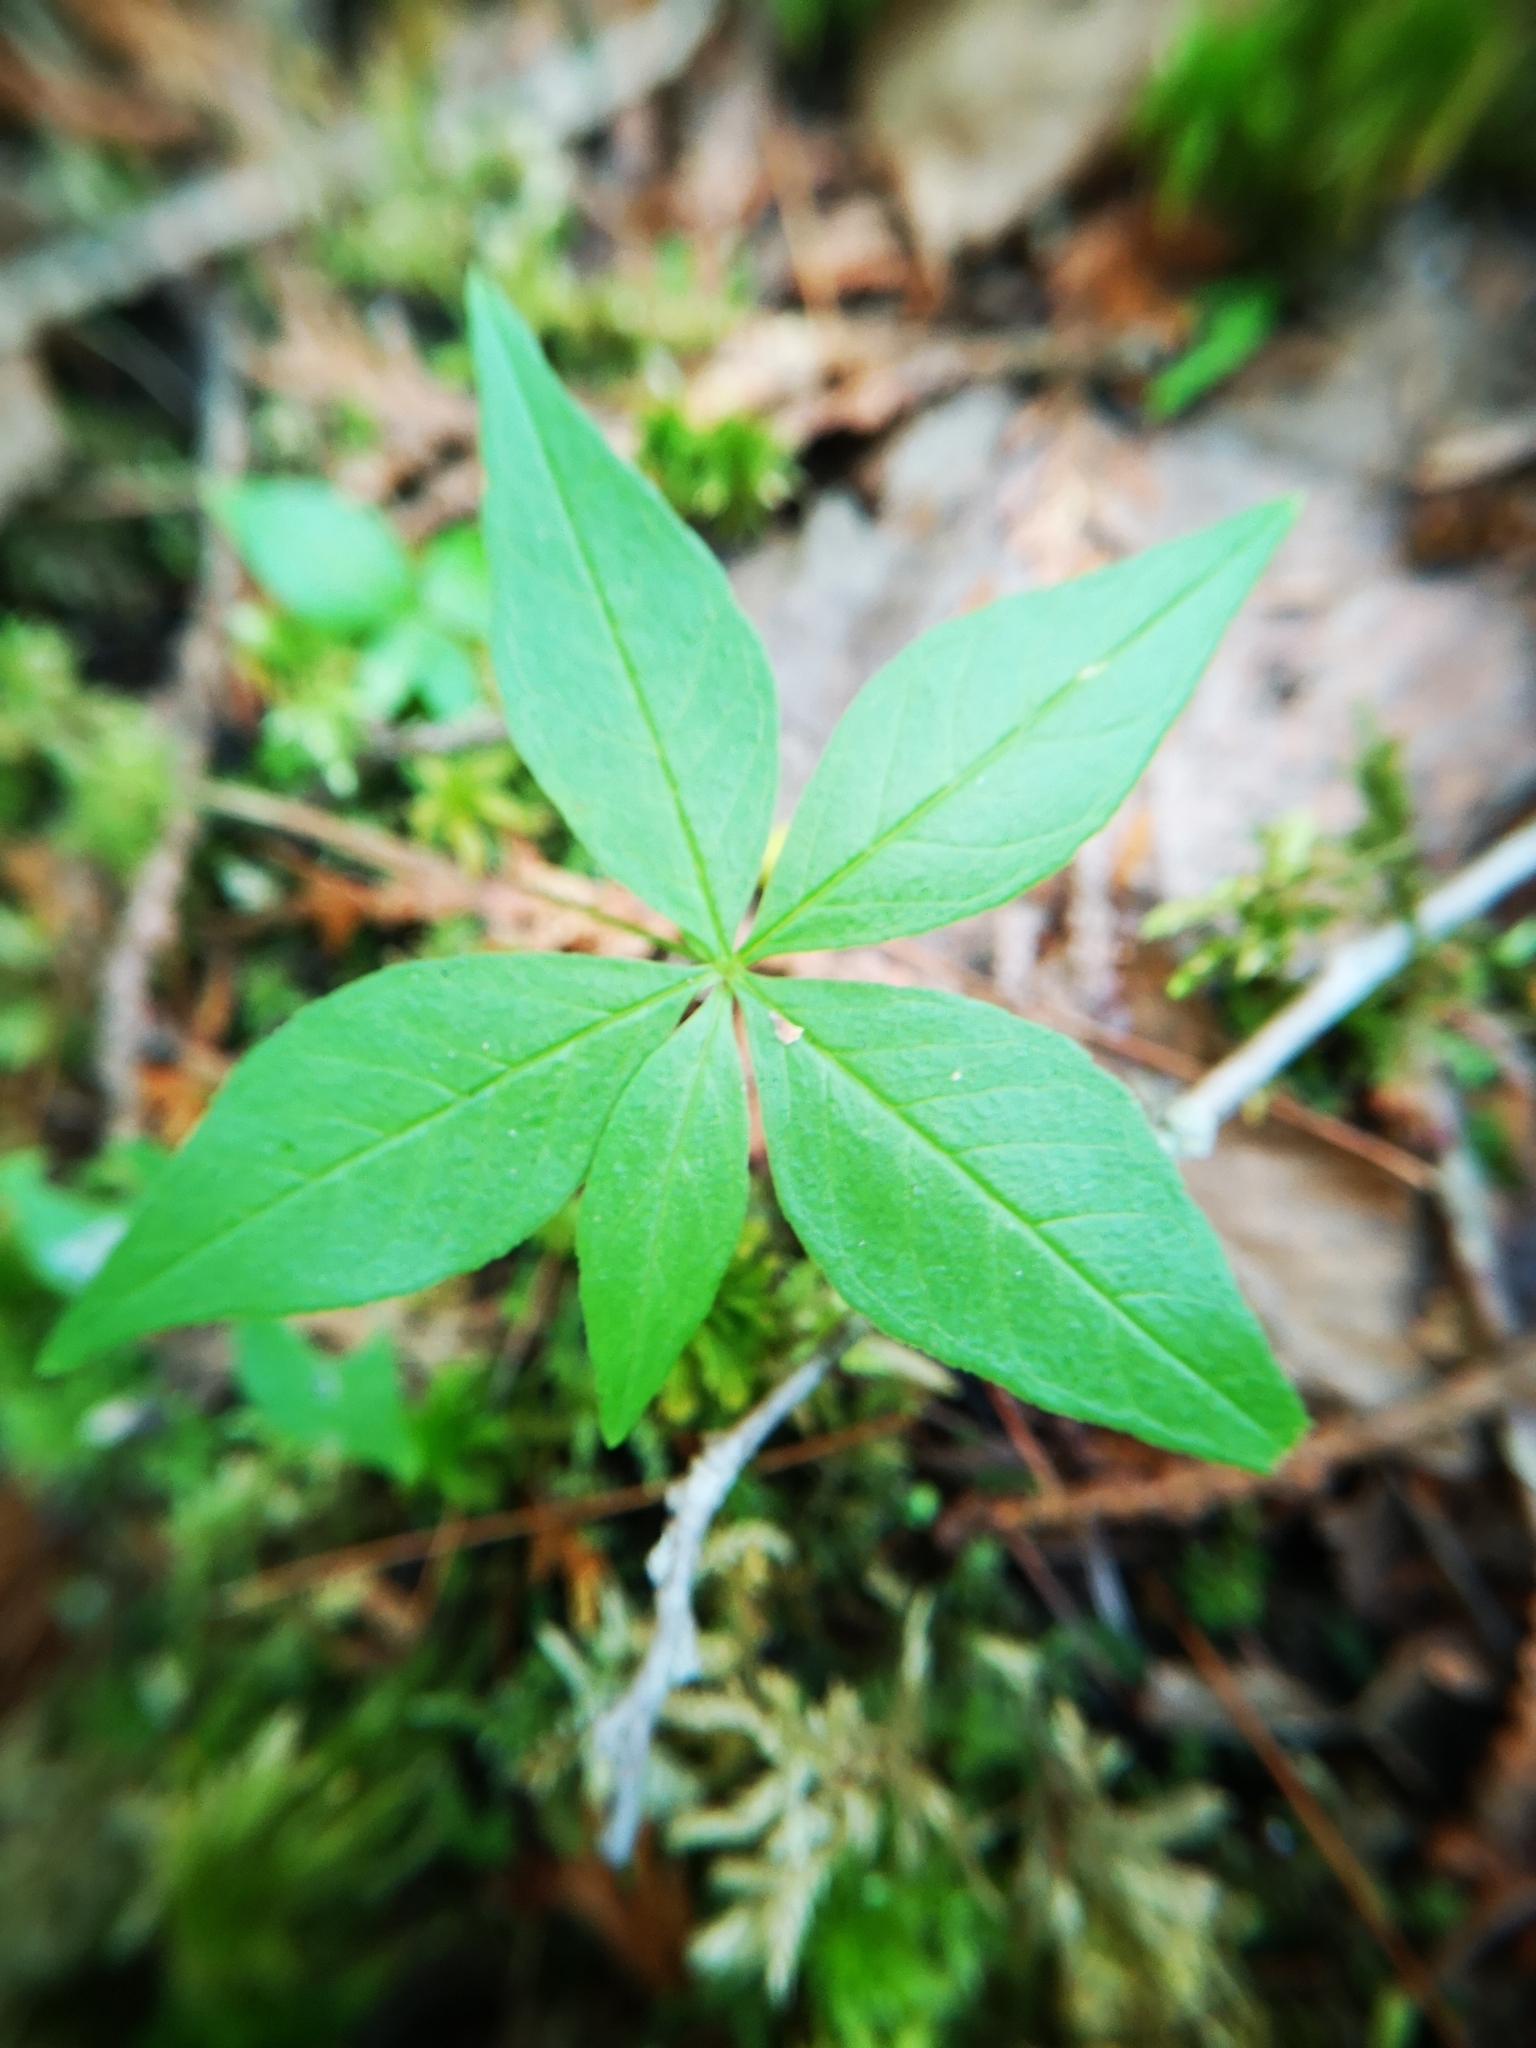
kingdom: Plantae
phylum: Tracheophyta
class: Magnoliopsida
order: Ericales
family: Primulaceae
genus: Lysimachia
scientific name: Lysimachia borealis
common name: American starflower
